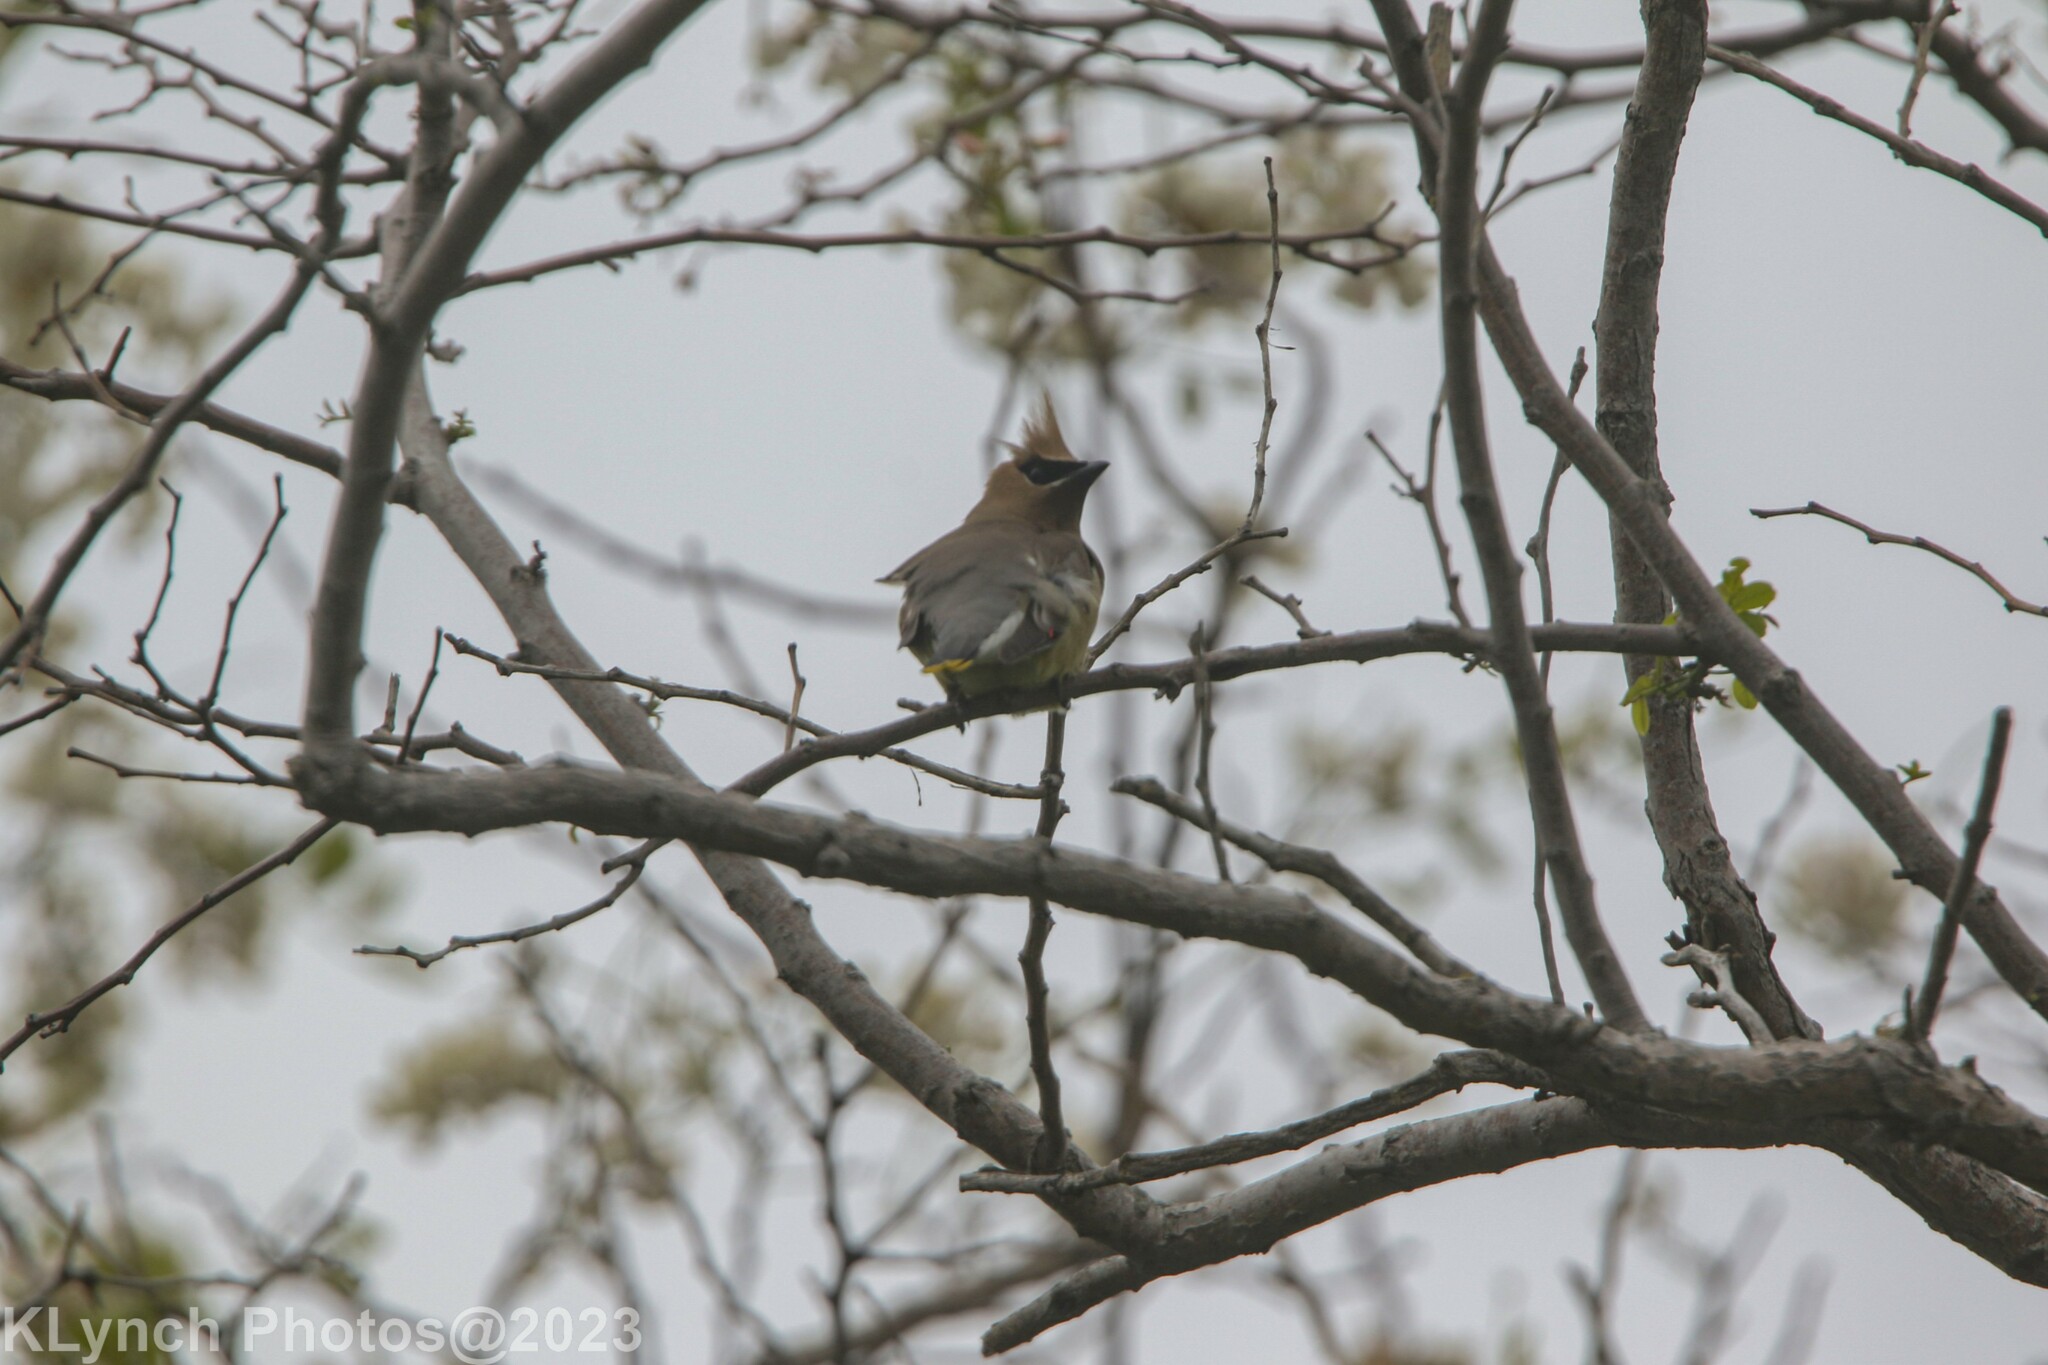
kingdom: Animalia
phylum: Chordata
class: Aves
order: Passeriformes
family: Bombycillidae
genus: Bombycilla
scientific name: Bombycilla cedrorum
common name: Cedar waxwing
